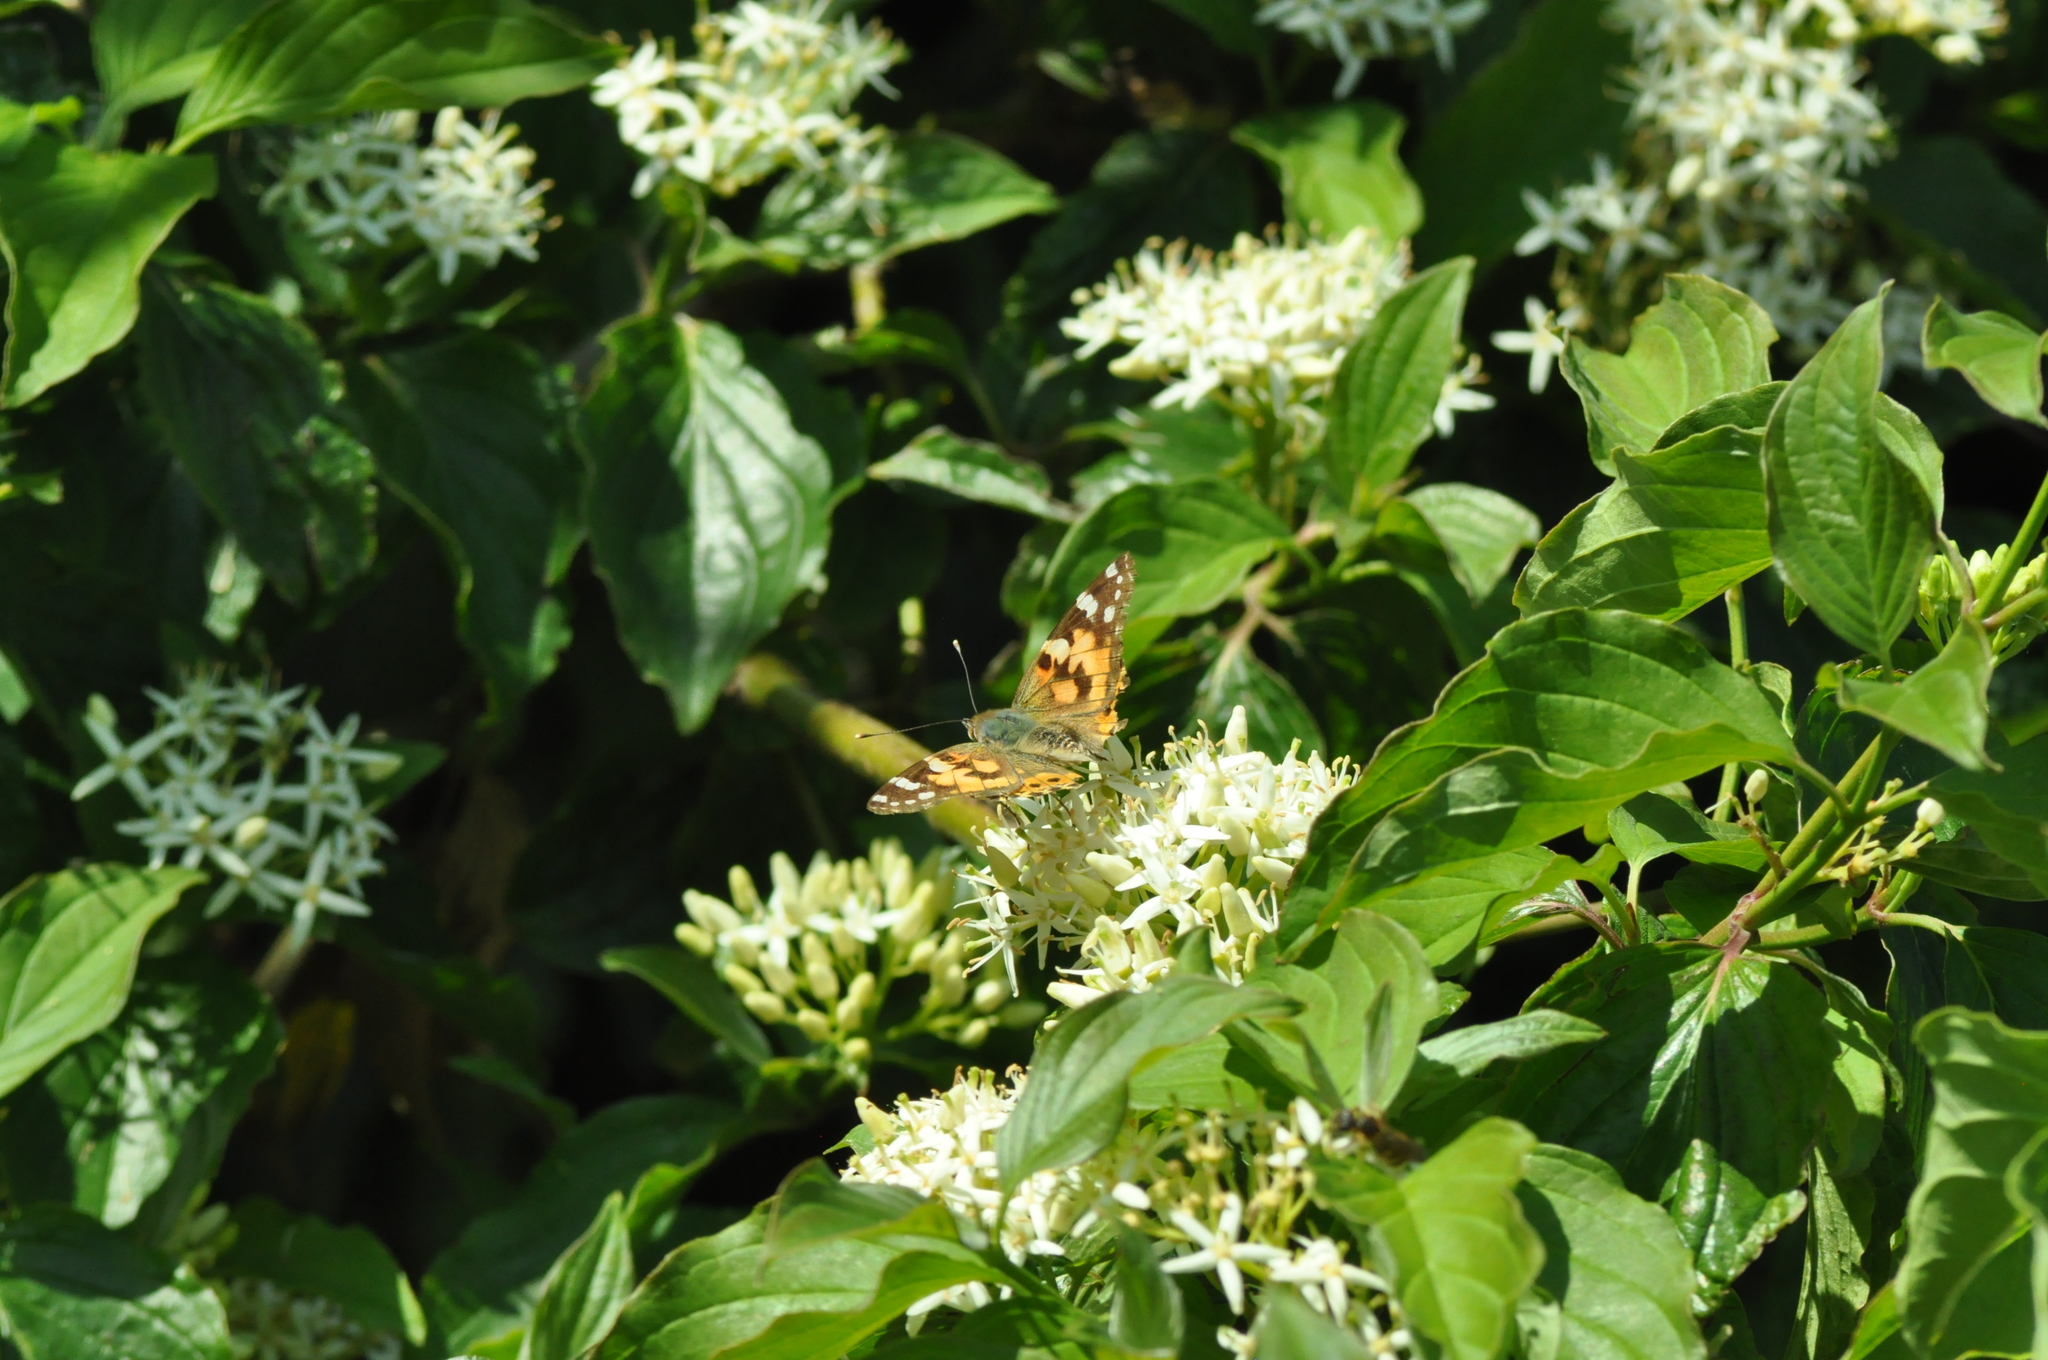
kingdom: Animalia
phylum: Arthropoda
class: Insecta
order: Lepidoptera
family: Nymphalidae
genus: Vanessa
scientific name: Vanessa cardui
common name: Painted lady
